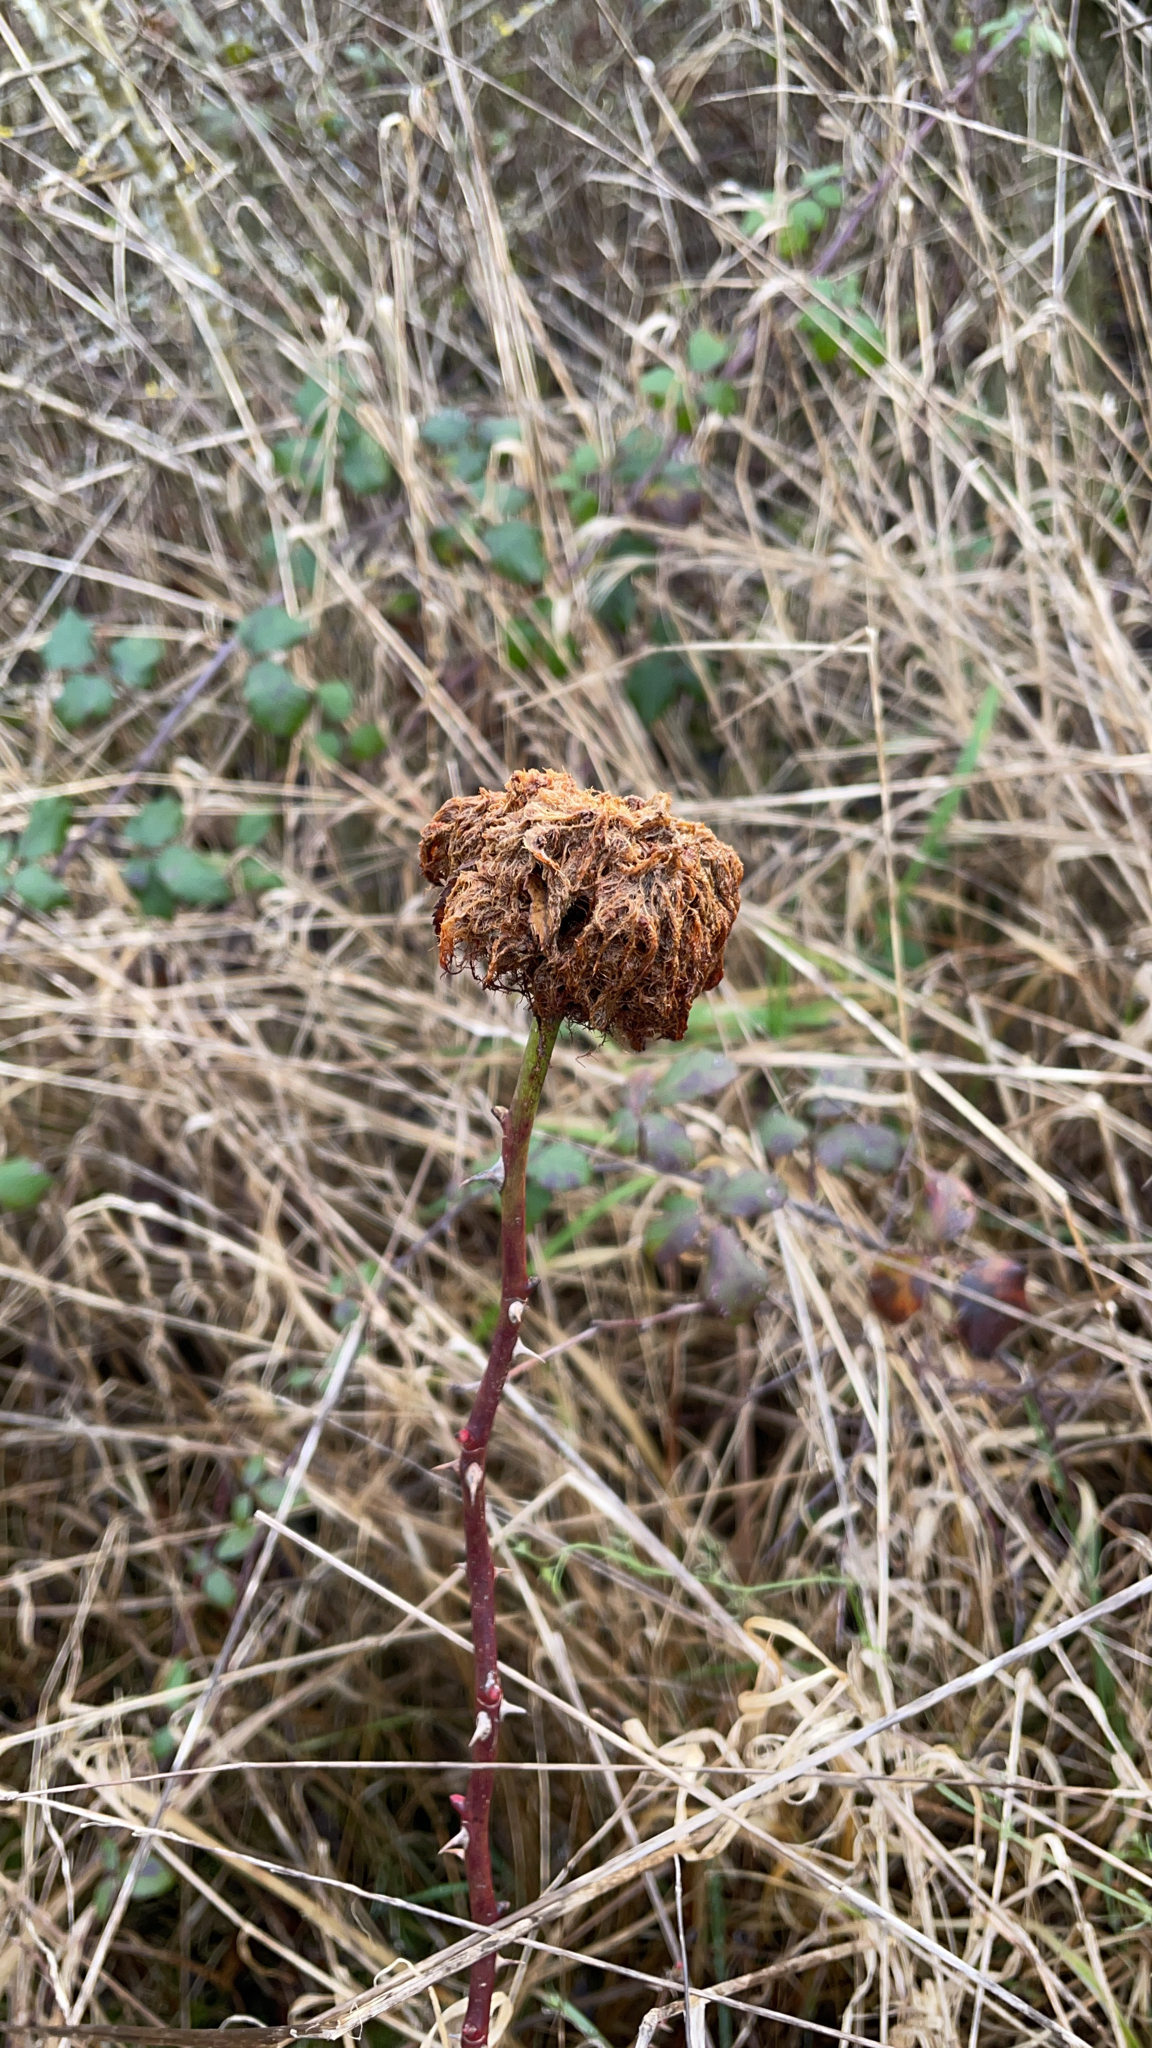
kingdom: Animalia
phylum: Arthropoda
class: Insecta
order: Hymenoptera
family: Cynipidae
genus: Diplolepis
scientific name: Diplolepis rosae
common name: Bedeguar gall
